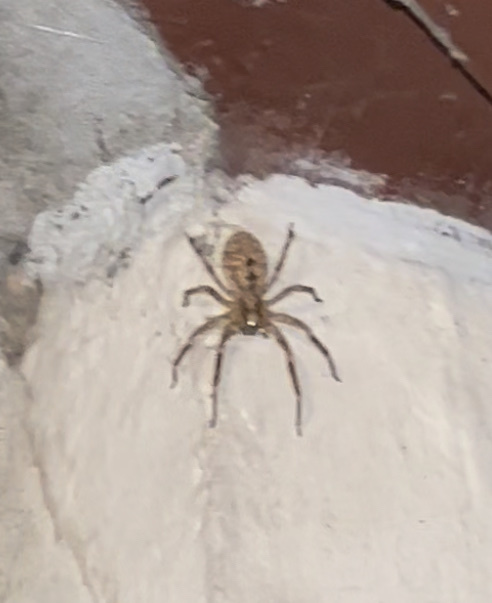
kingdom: Animalia
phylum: Arthropoda
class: Arachnida
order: Araneae
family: Zoropsidae
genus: Zoropsis
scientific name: Zoropsis spinimana
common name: Zoropsid spider
